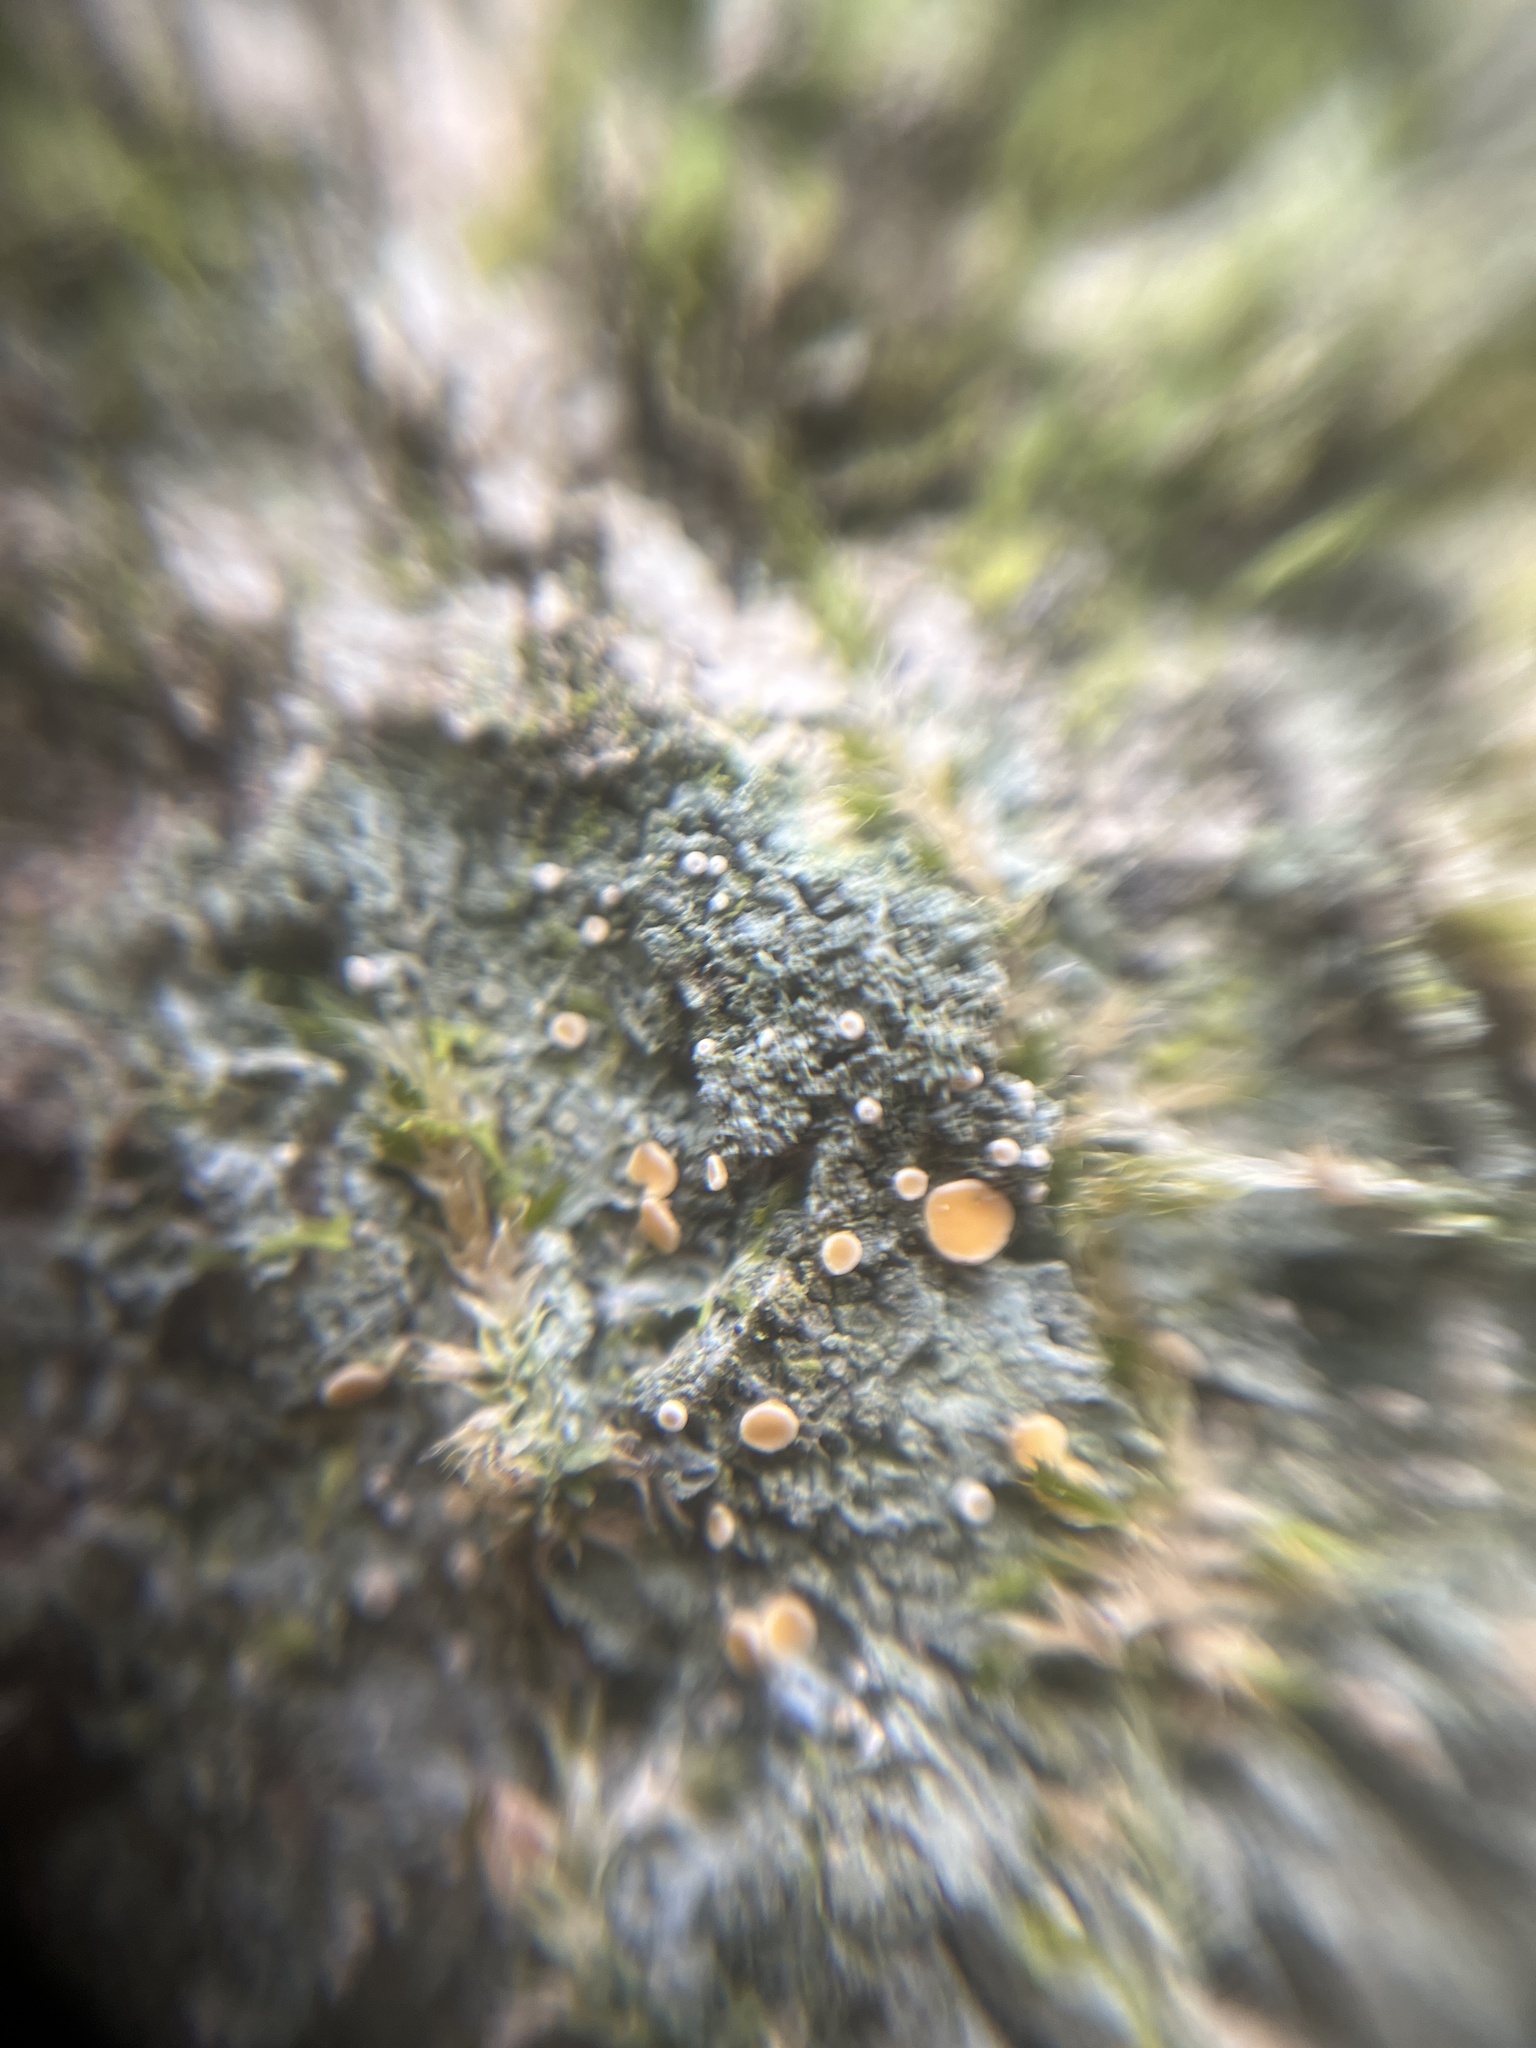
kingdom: Fungi
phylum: Ascomycota
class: Lecanoromycetes
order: Ostropales
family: Coenogoniaceae
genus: Coenogonium
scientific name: Coenogonium luteum
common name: Orange dimple lichen
